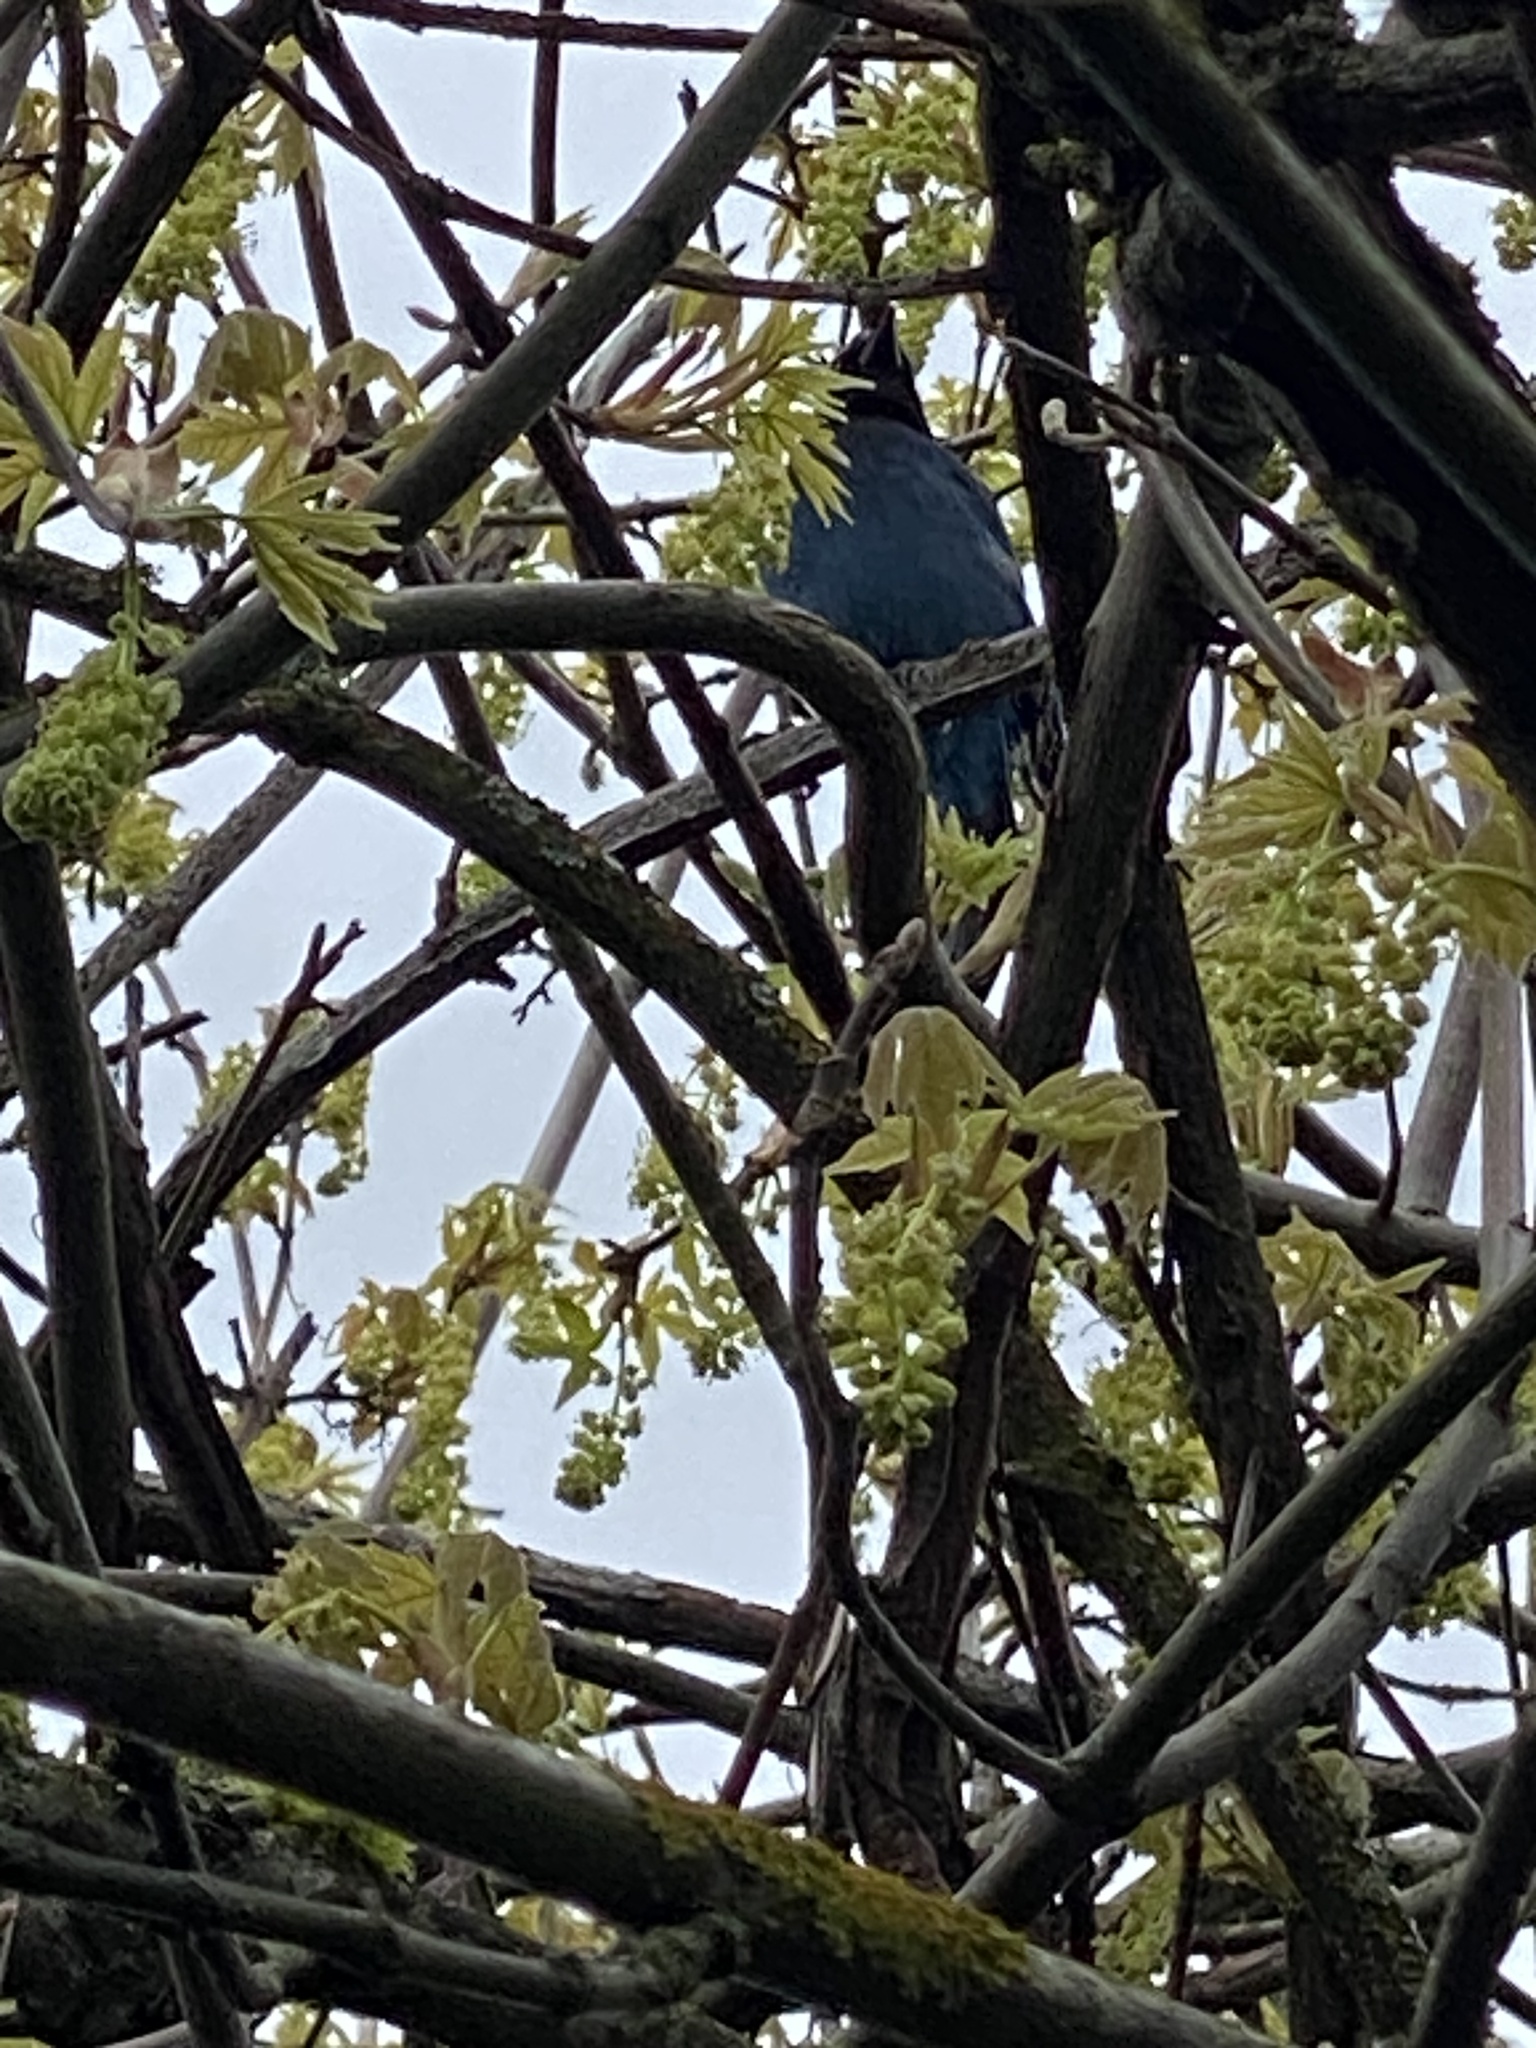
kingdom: Animalia
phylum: Chordata
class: Aves
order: Passeriformes
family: Corvidae
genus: Cyanocitta
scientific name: Cyanocitta stelleri
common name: Steller's jay
